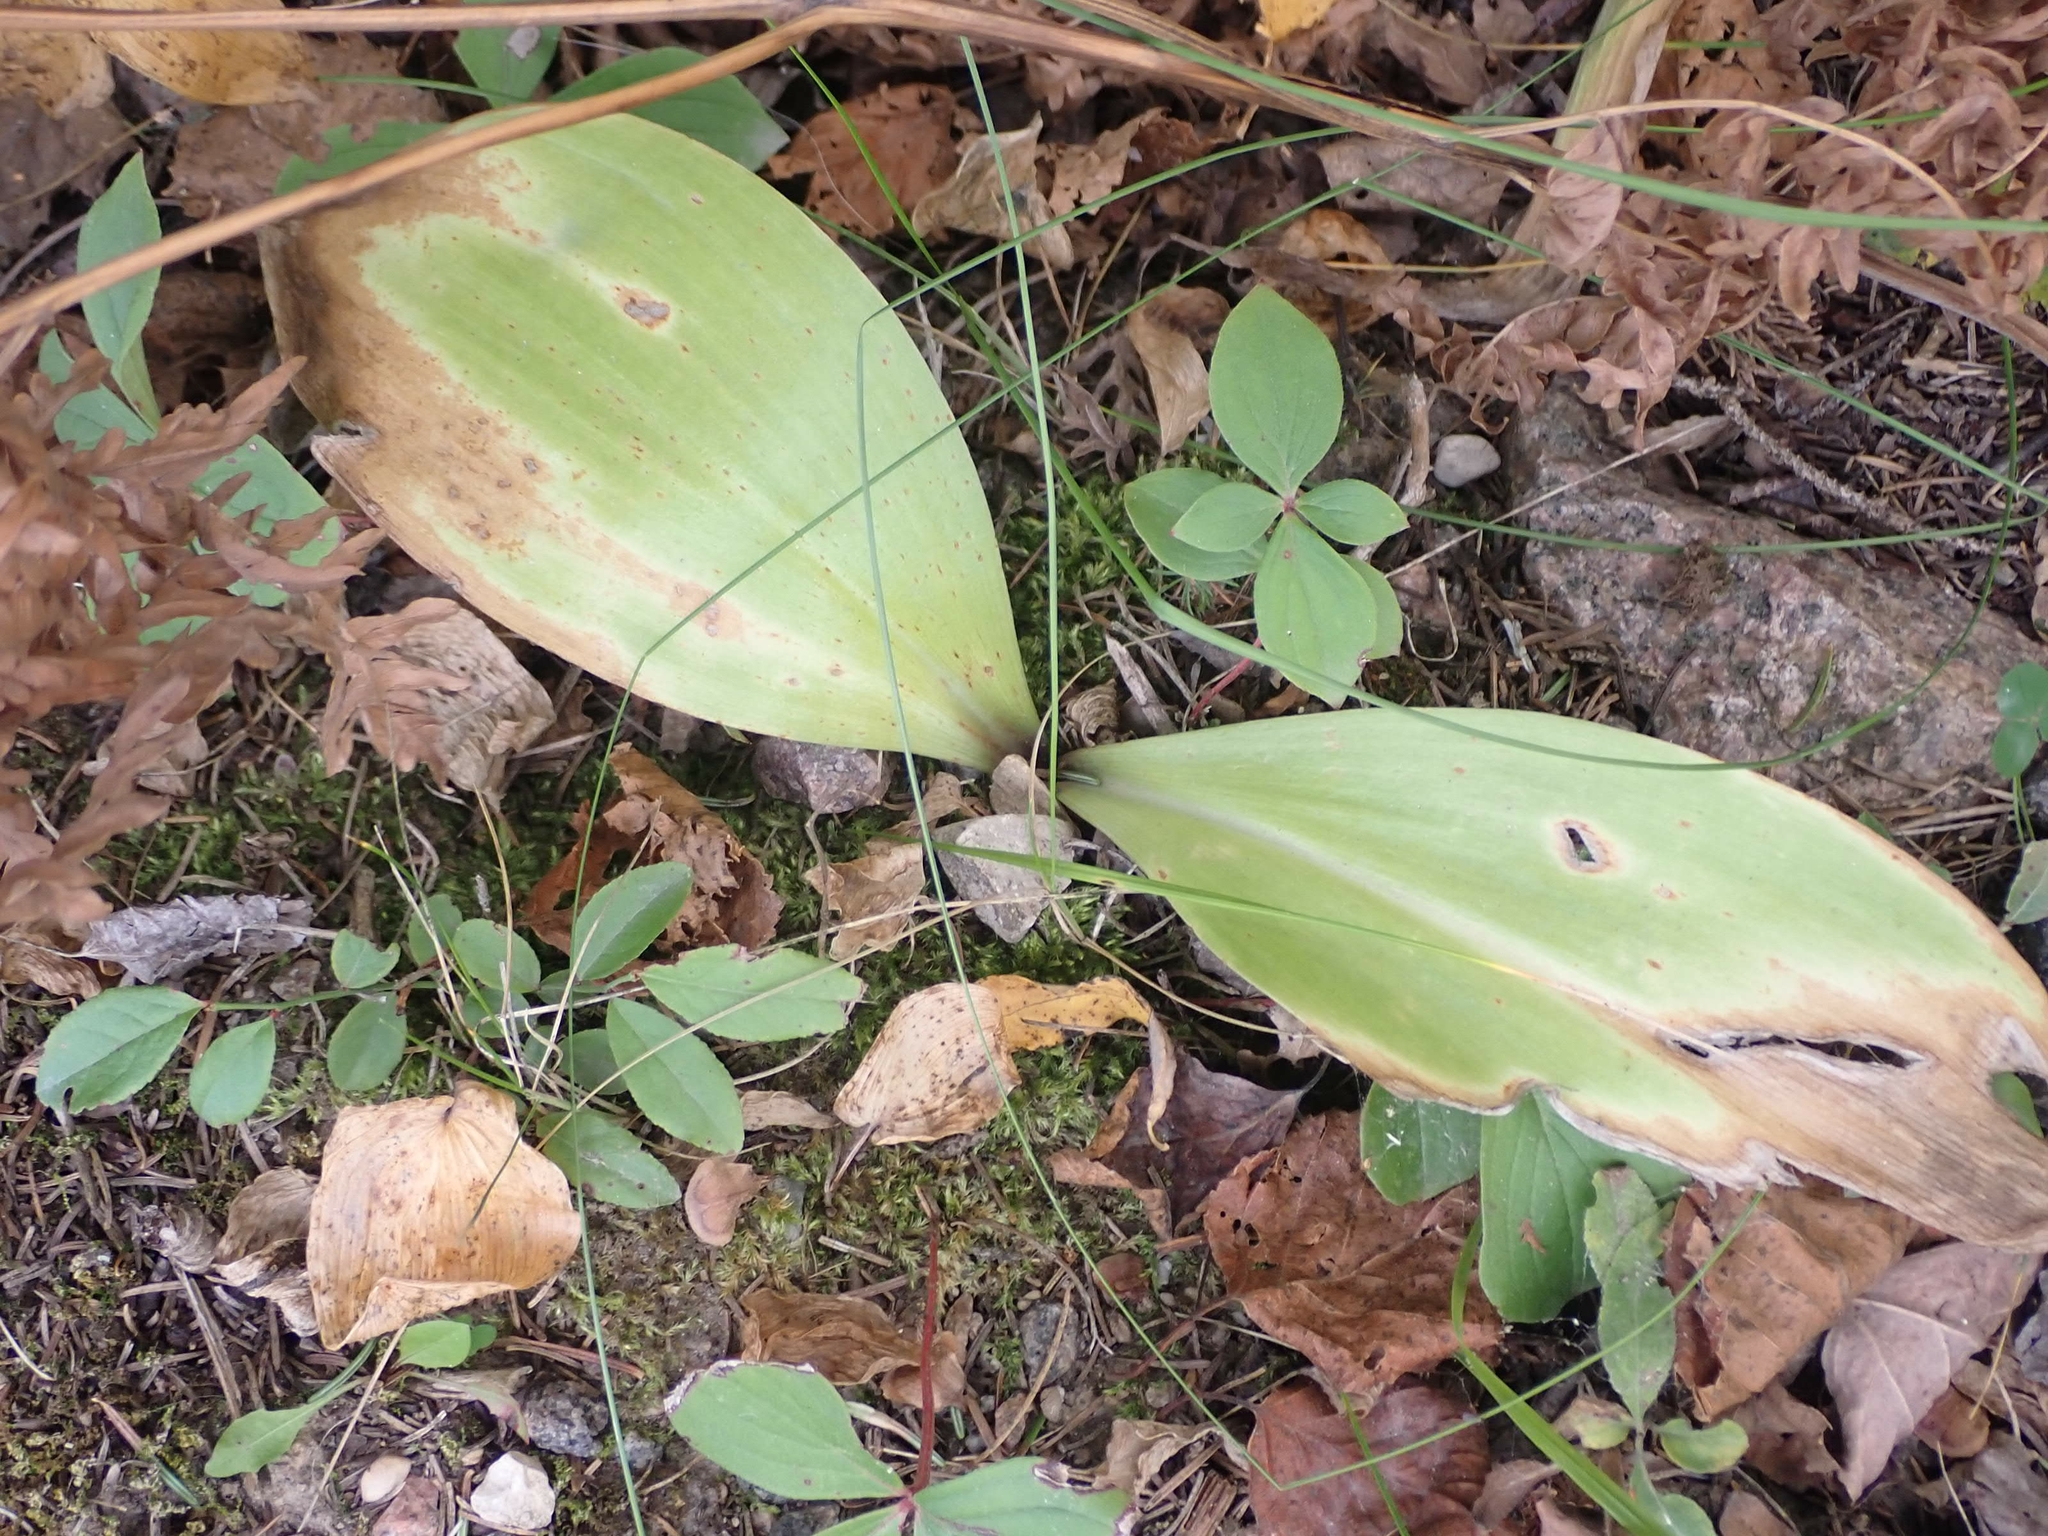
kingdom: Plantae
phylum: Tracheophyta
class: Liliopsida
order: Liliales
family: Liliaceae
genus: Clintonia
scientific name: Clintonia borealis
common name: Yellow clintonia
